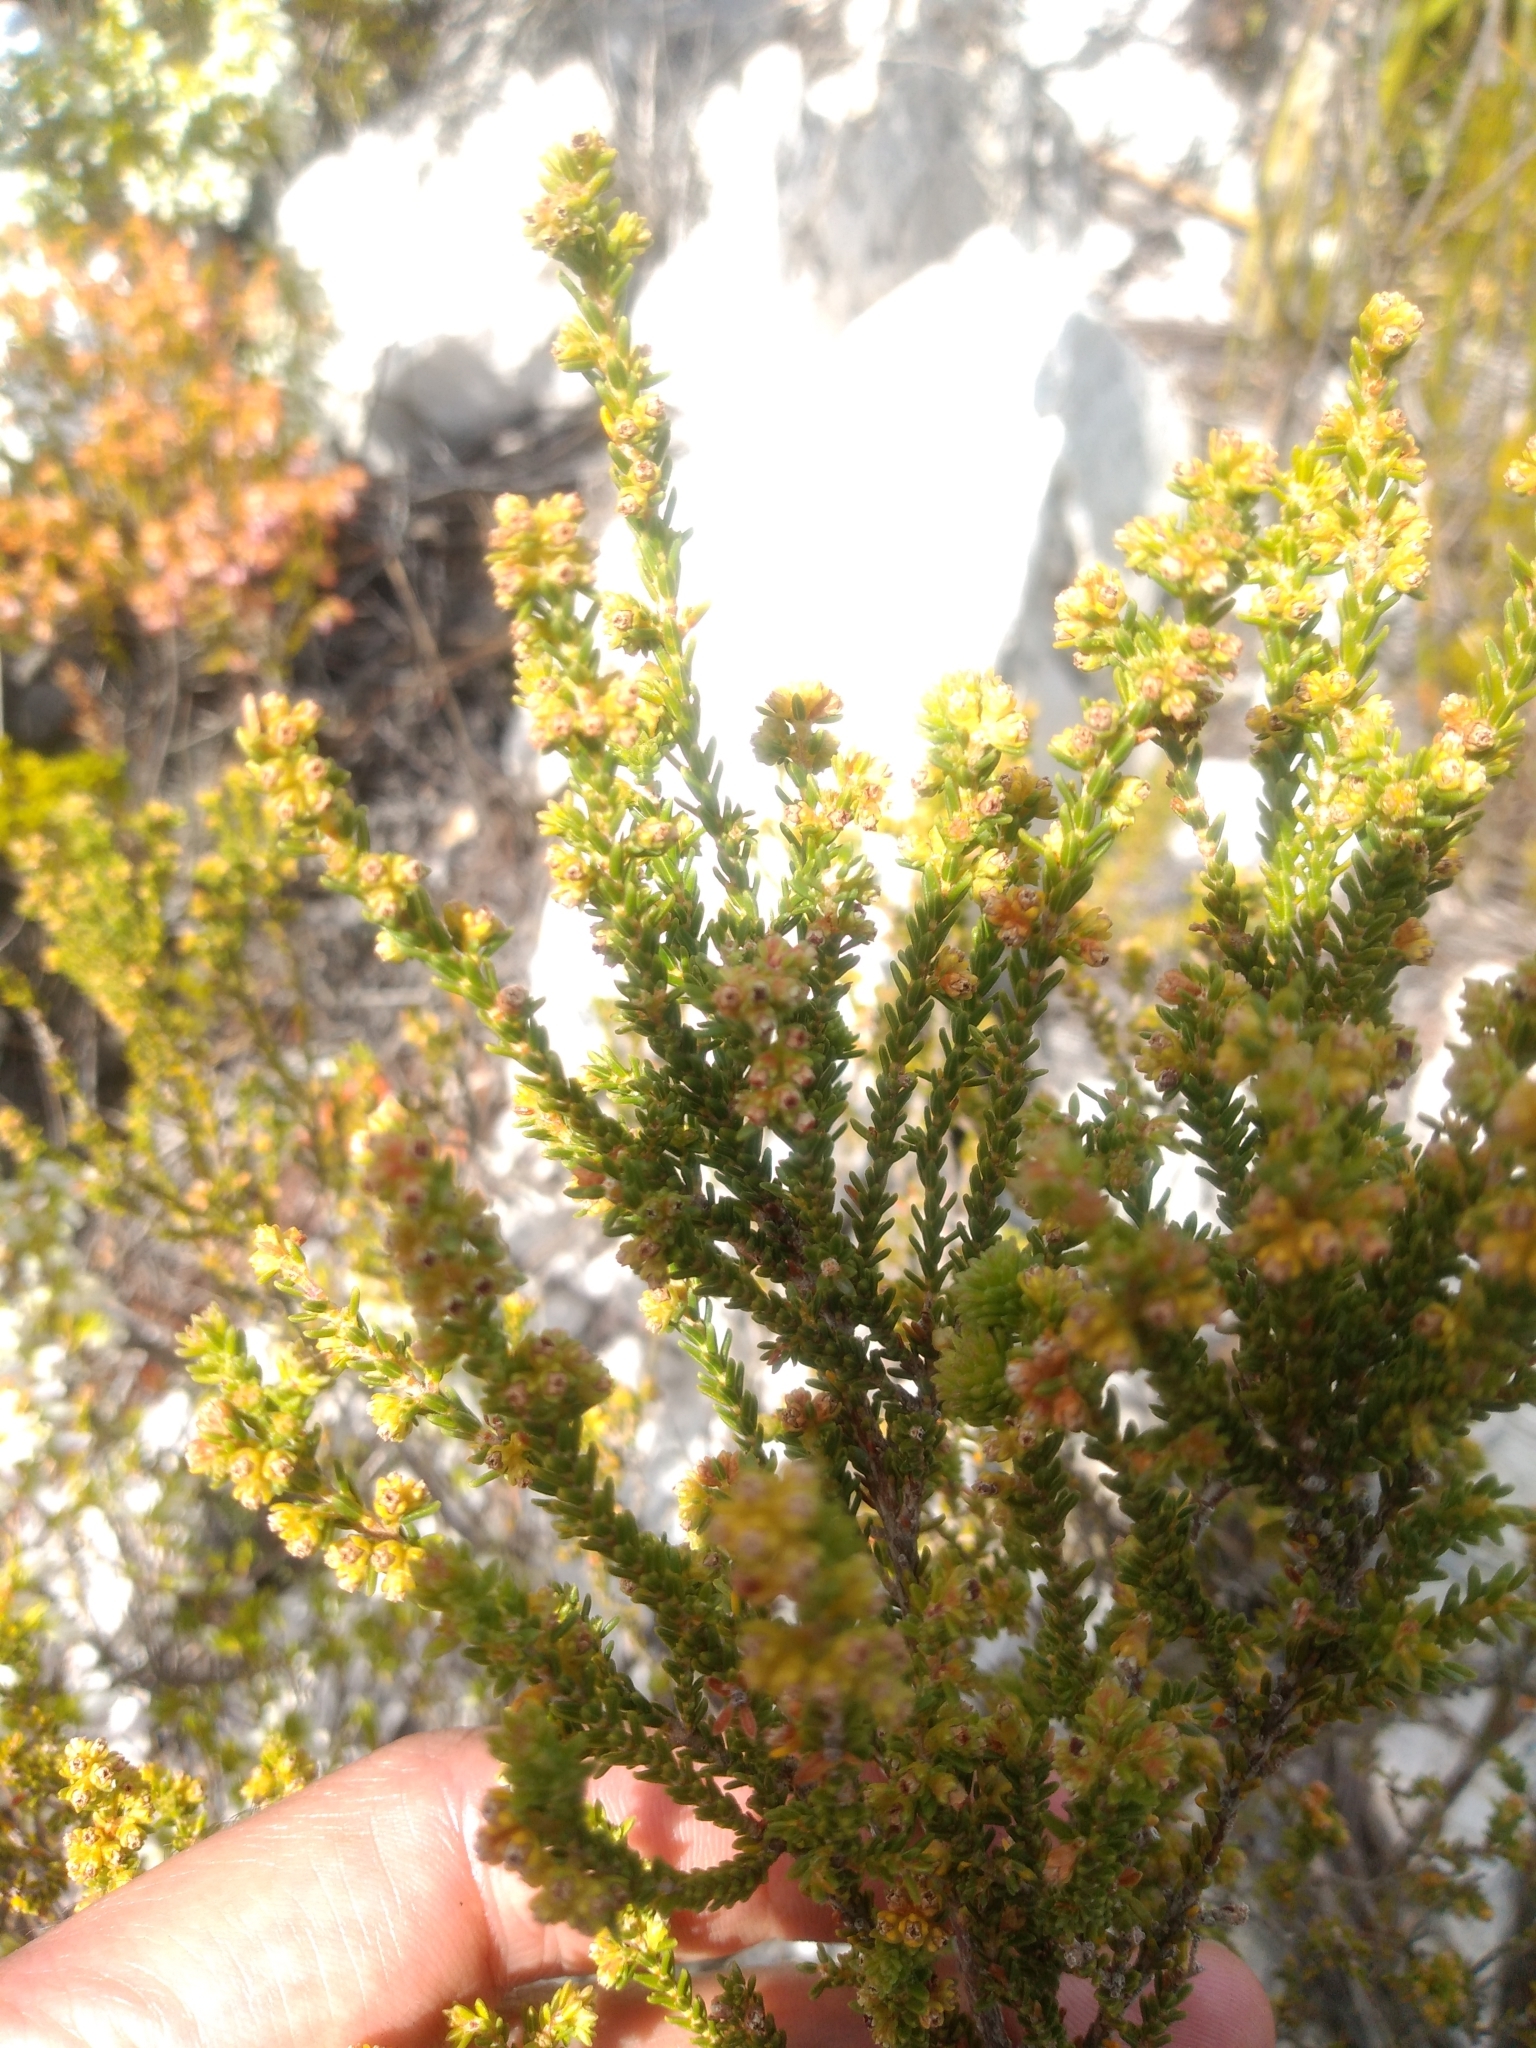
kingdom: Plantae
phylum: Tracheophyta
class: Magnoliopsida
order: Ericales
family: Ericaceae
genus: Erica
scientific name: Erica serrata
